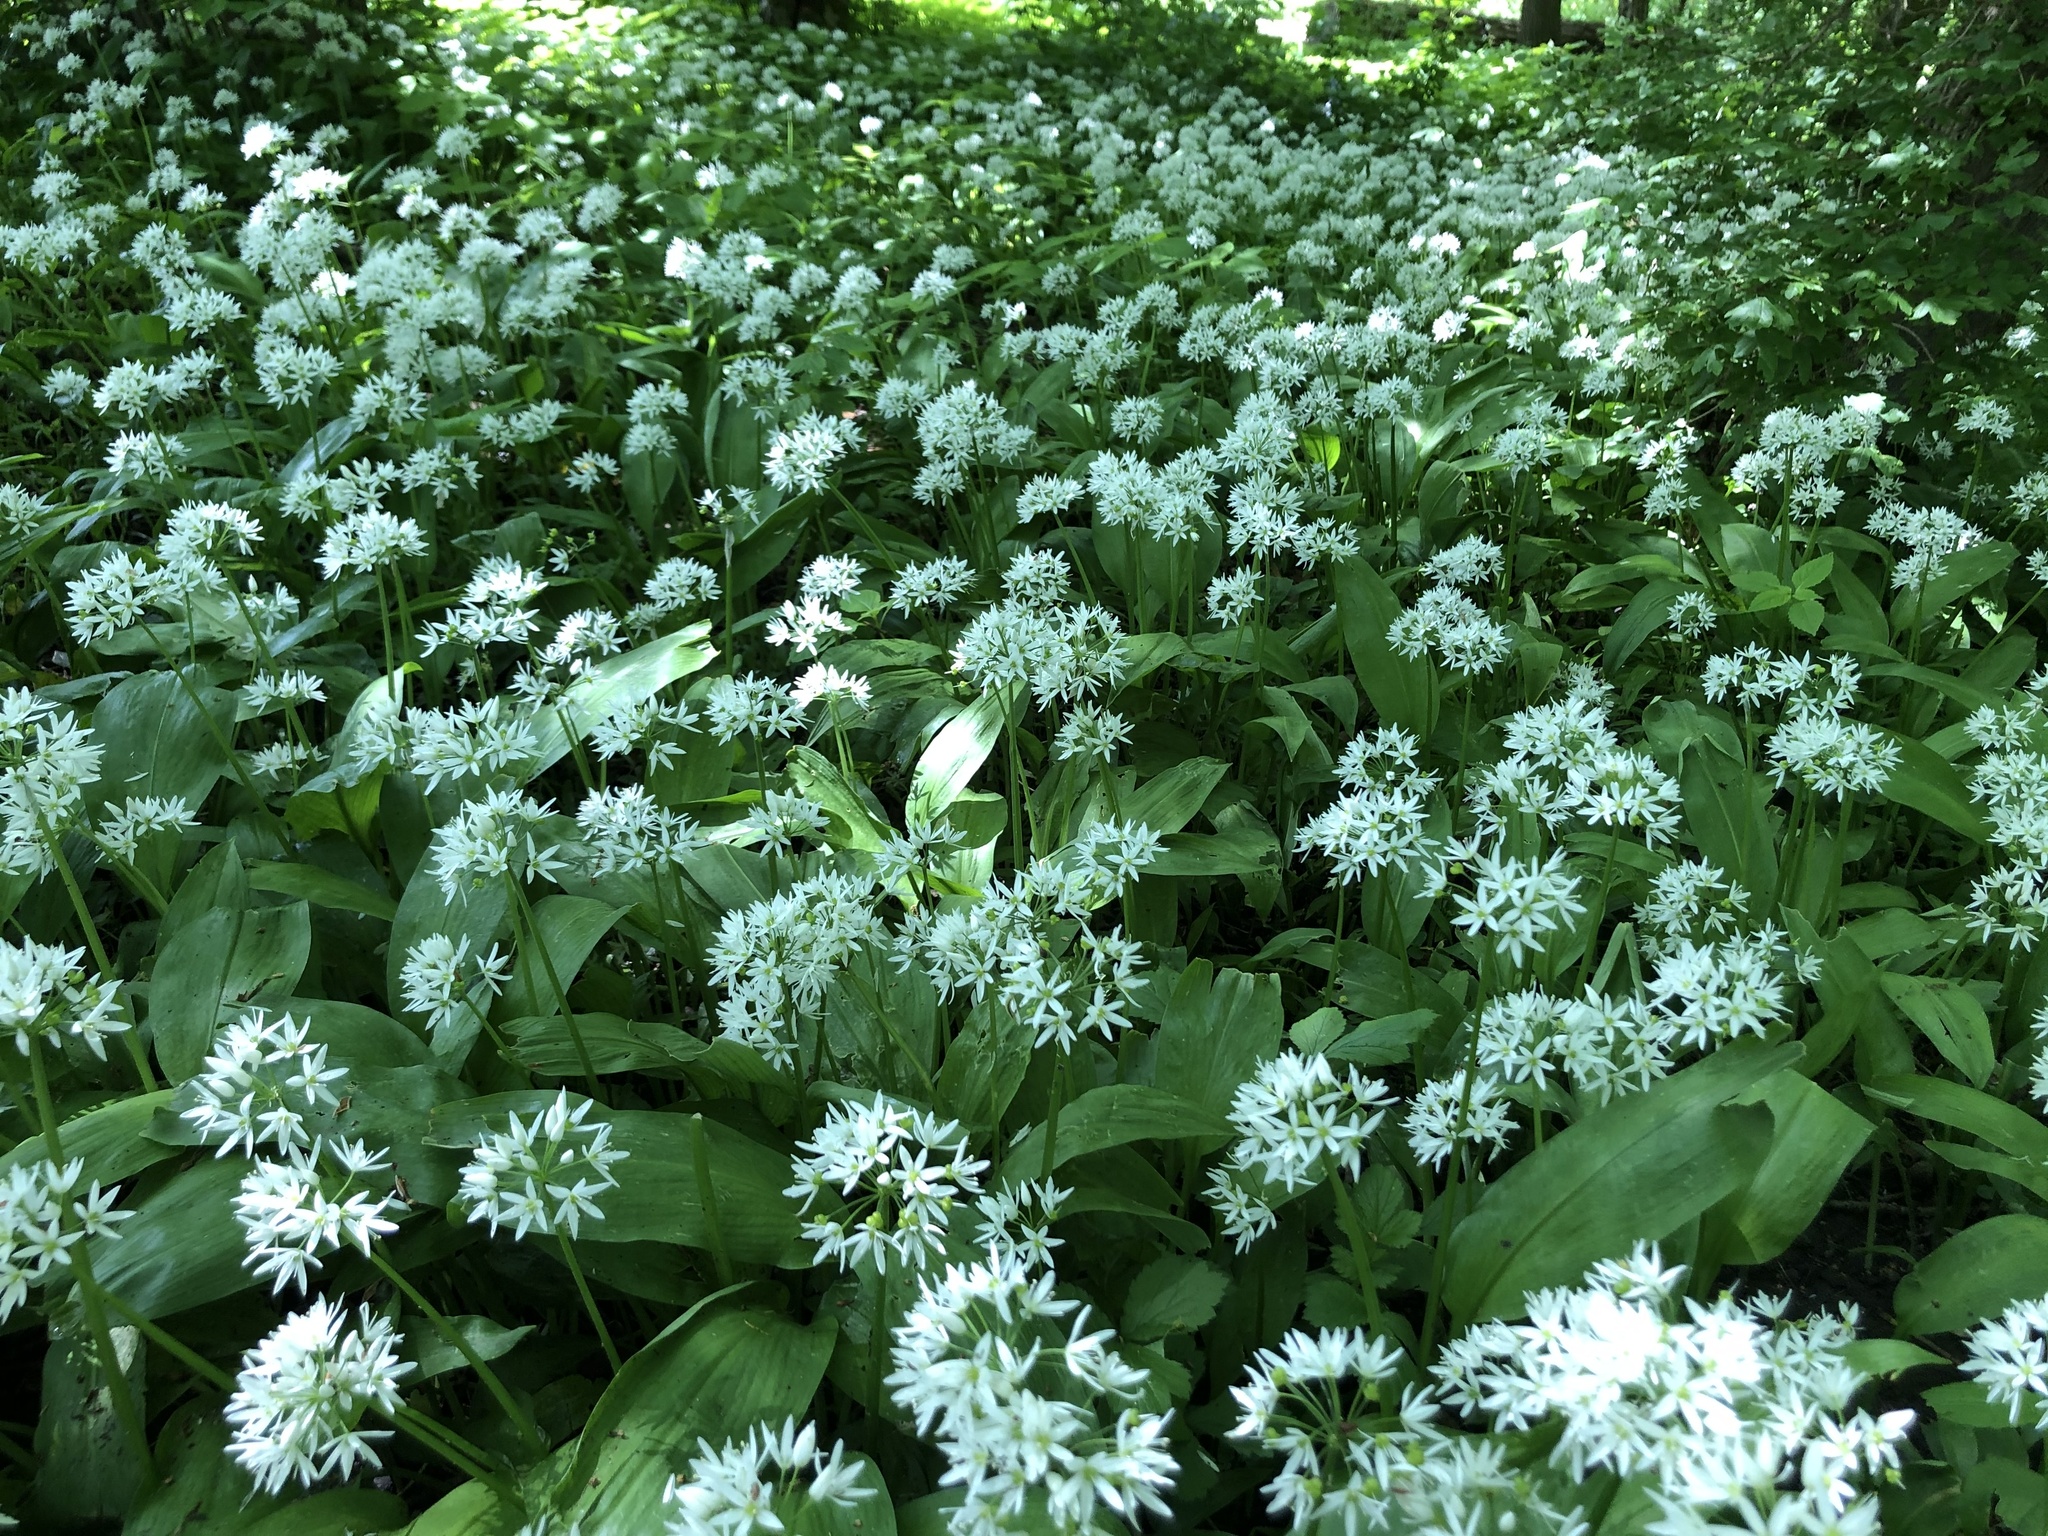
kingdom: Plantae
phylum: Tracheophyta
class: Liliopsida
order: Asparagales
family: Amaryllidaceae
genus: Allium
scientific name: Allium ursinum
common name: Ramsons
